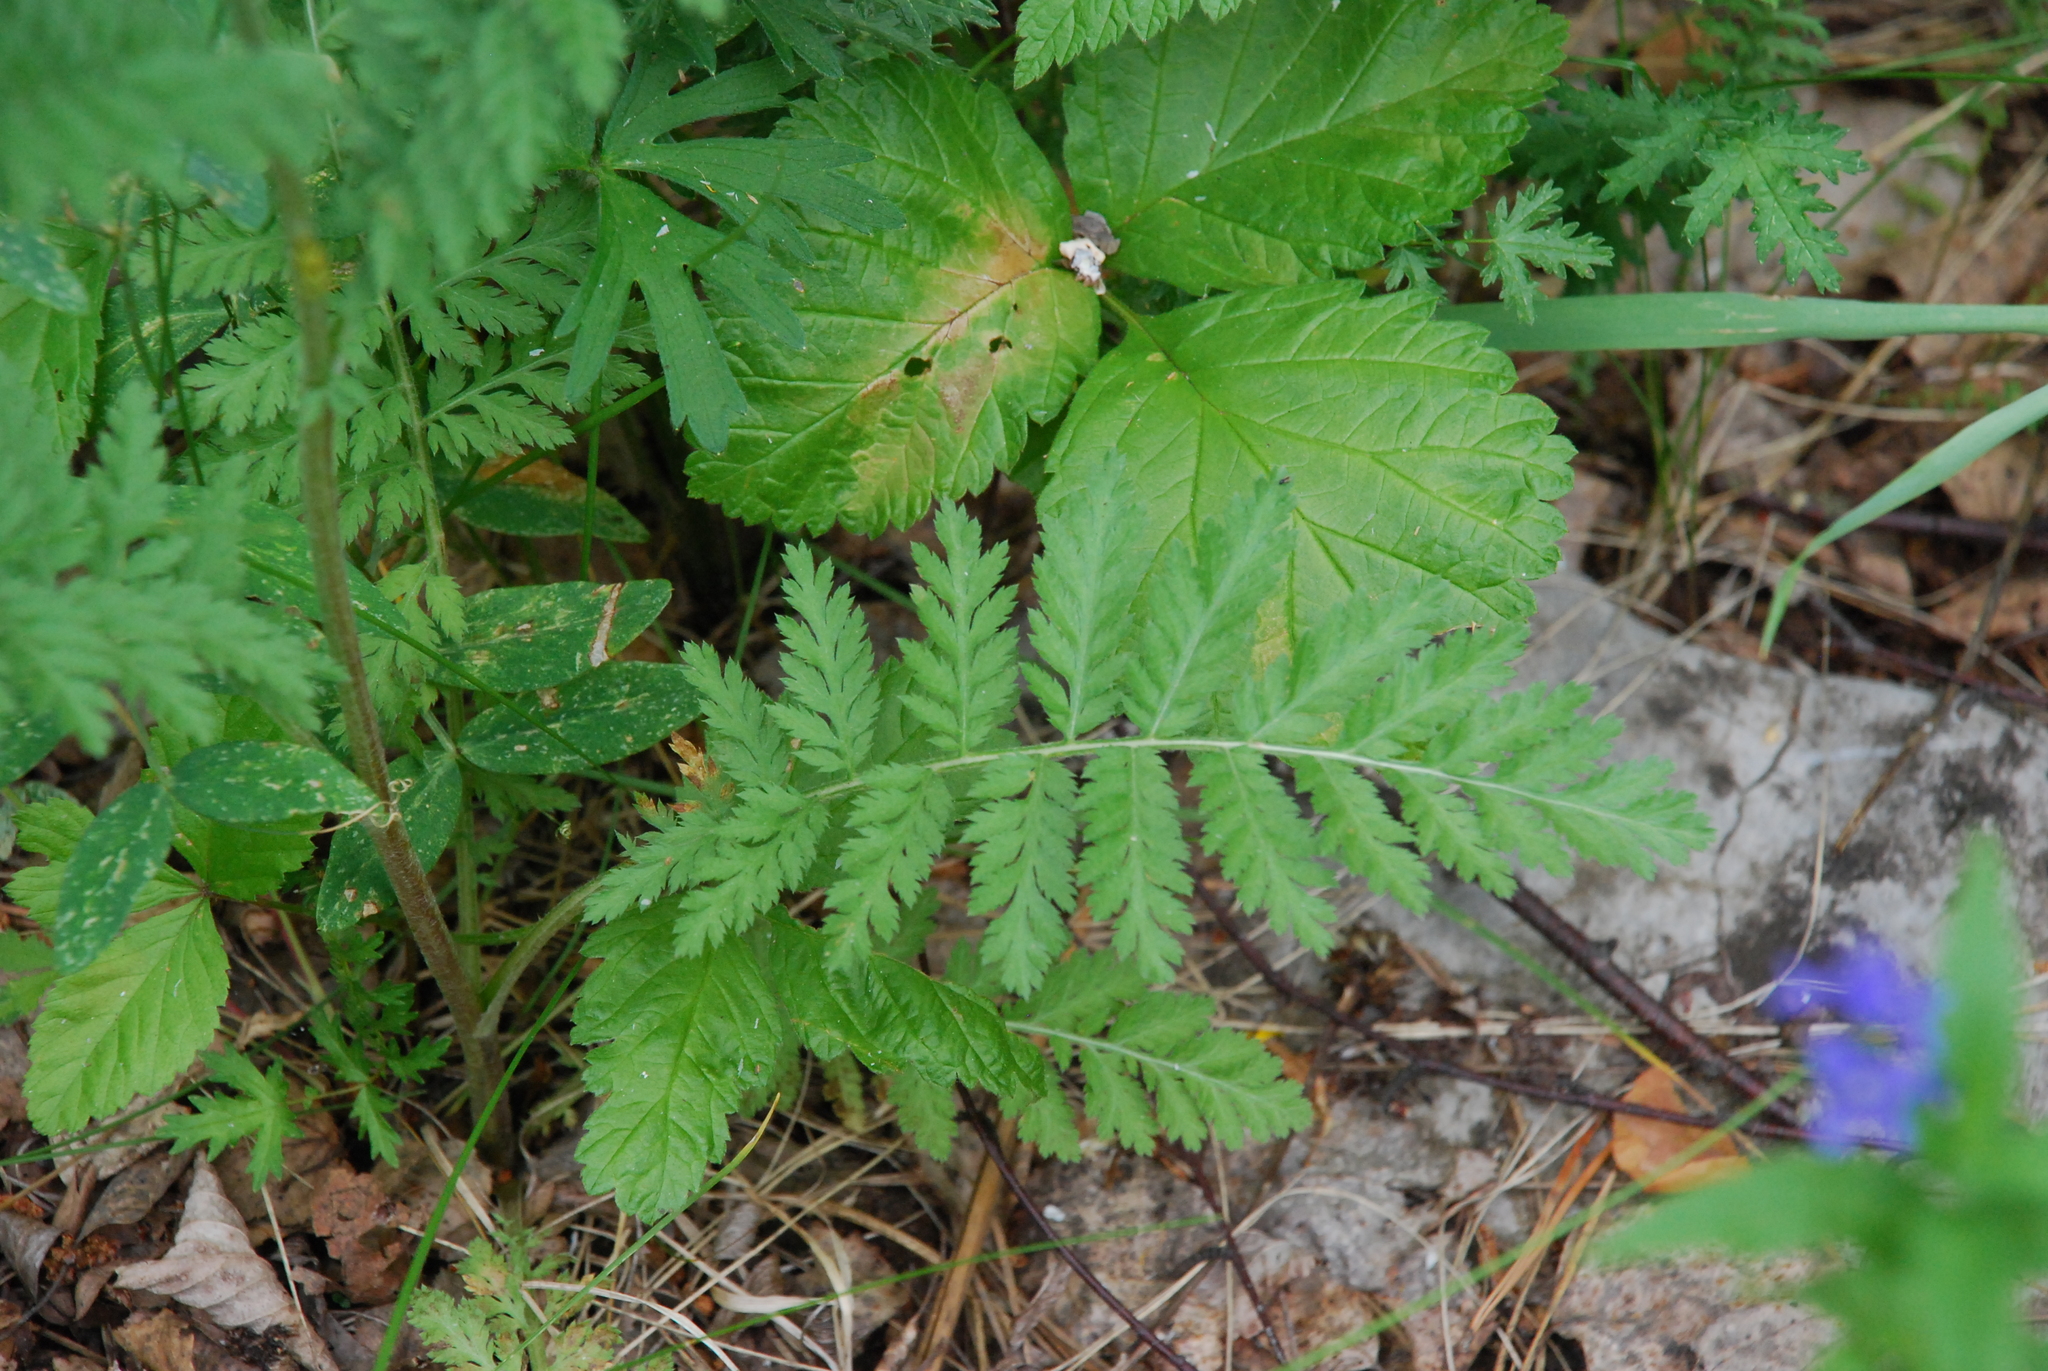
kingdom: Plantae
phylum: Tracheophyta
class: Magnoliopsida
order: Asterales
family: Asteraceae
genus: Tanacetum
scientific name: Tanacetum corymbosum
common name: Scentless feverfew
